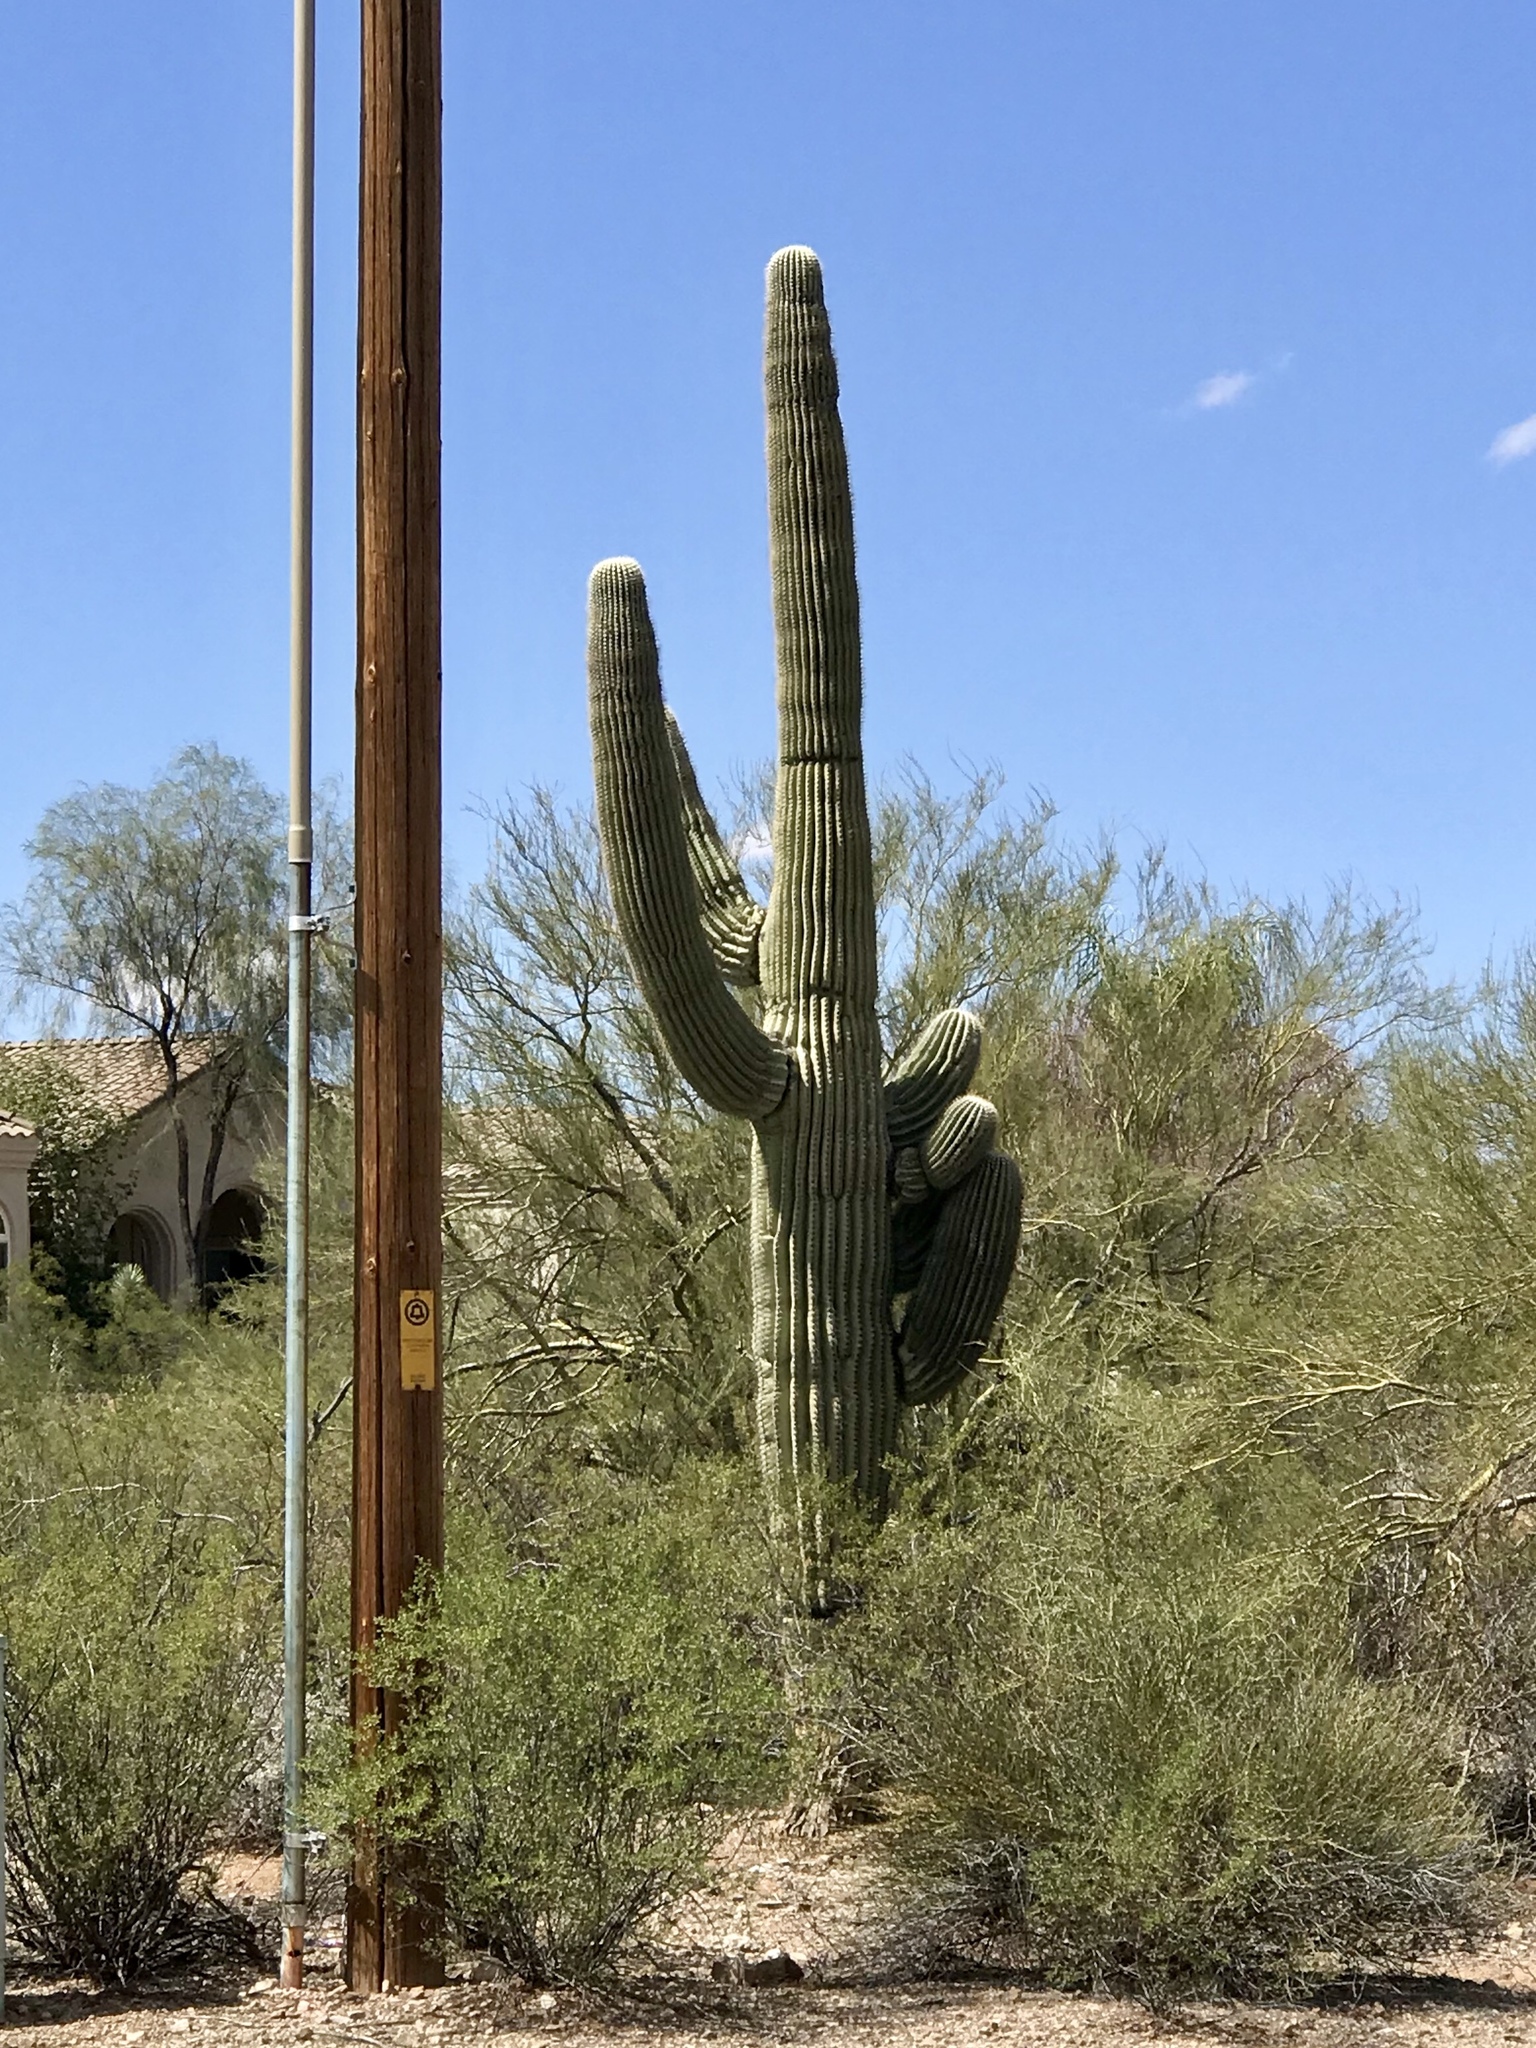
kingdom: Plantae
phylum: Tracheophyta
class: Magnoliopsida
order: Caryophyllales
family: Cactaceae
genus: Carnegiea
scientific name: Carnegiea gigantea
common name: Saguaro
